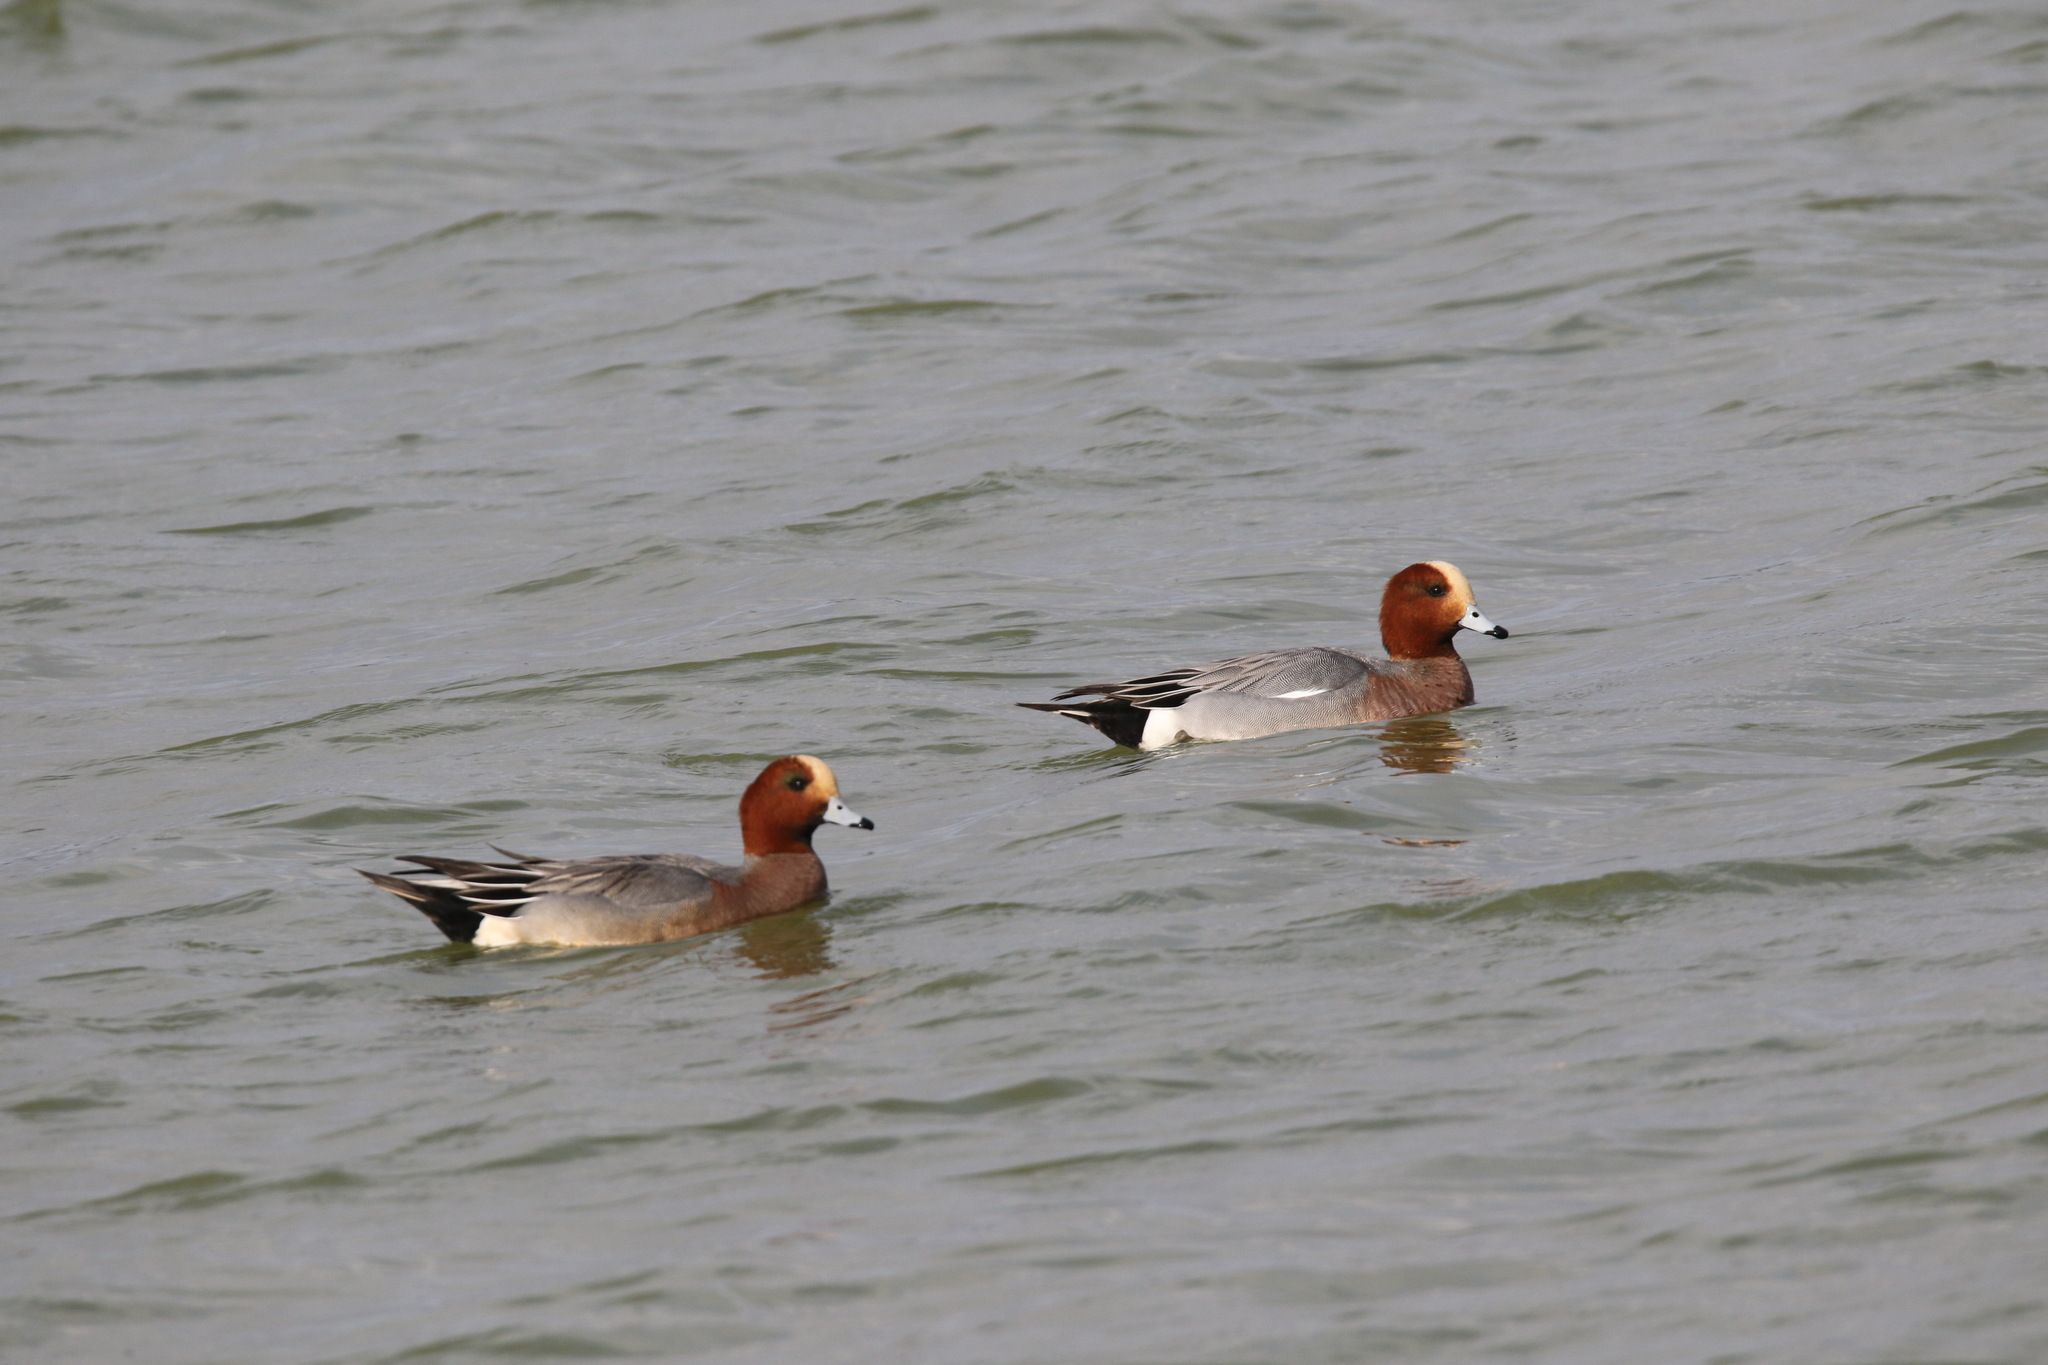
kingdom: Animalia
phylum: Chordata
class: Aves
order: Anseriformes
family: Anatidae
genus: Mareca
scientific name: Mareca penelope
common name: Eurasian wigeon
